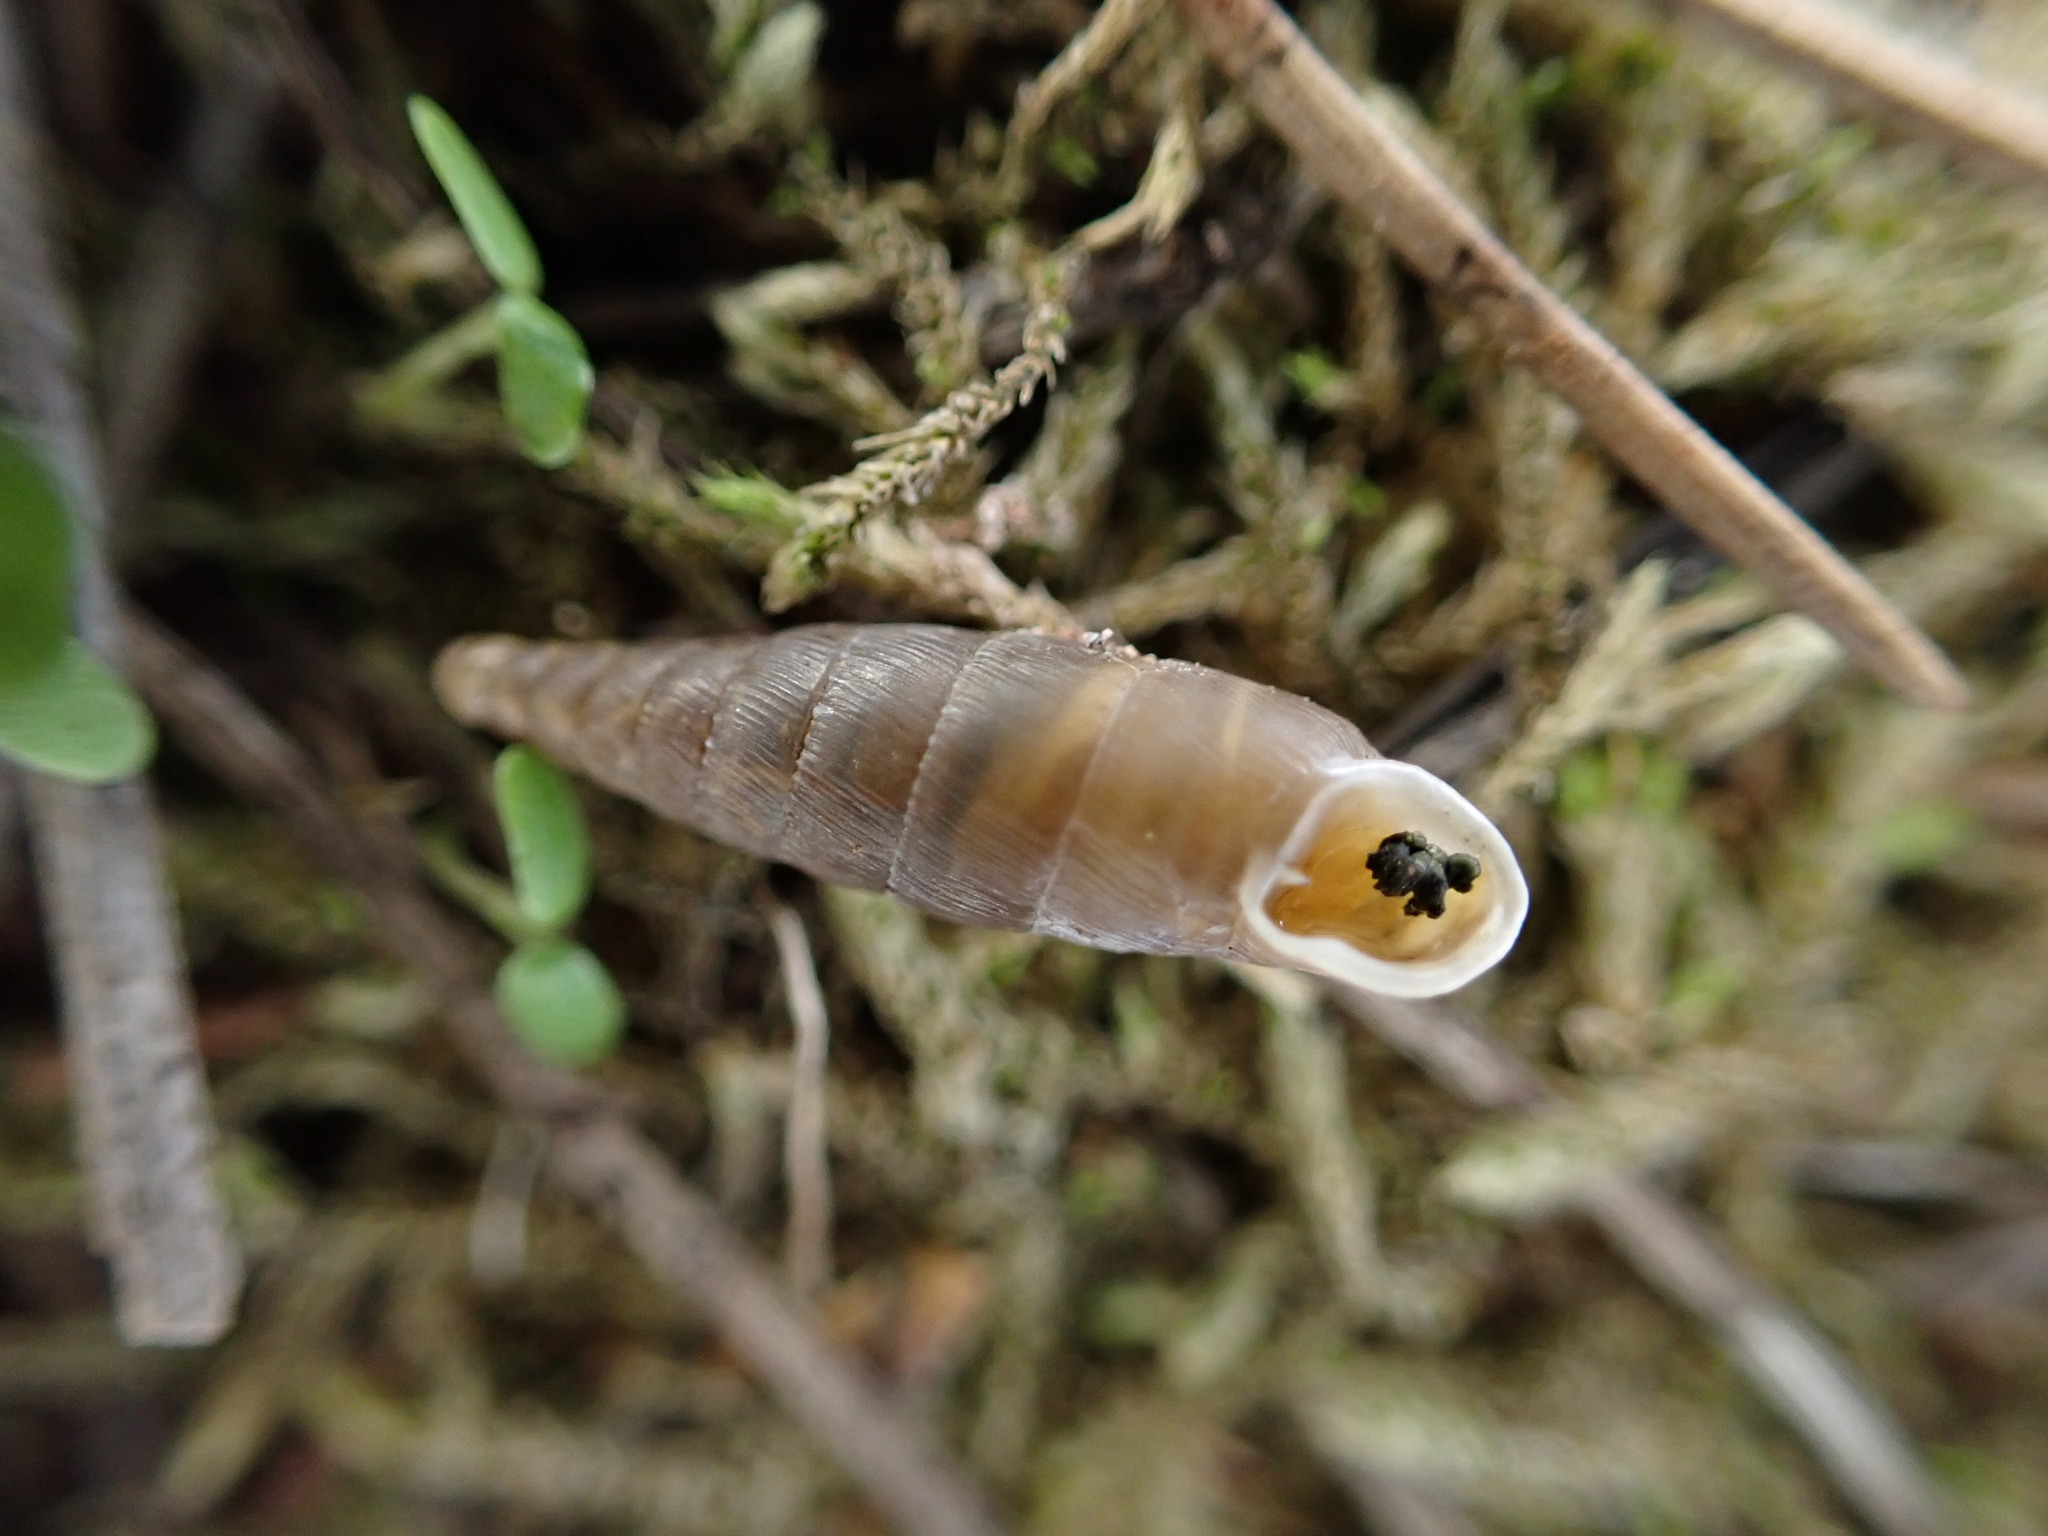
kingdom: Animalia
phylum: Mollusca
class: Gastropoda
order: Stylommatophora
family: Clausiliidae
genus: Papillifera
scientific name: Papillifera solida
